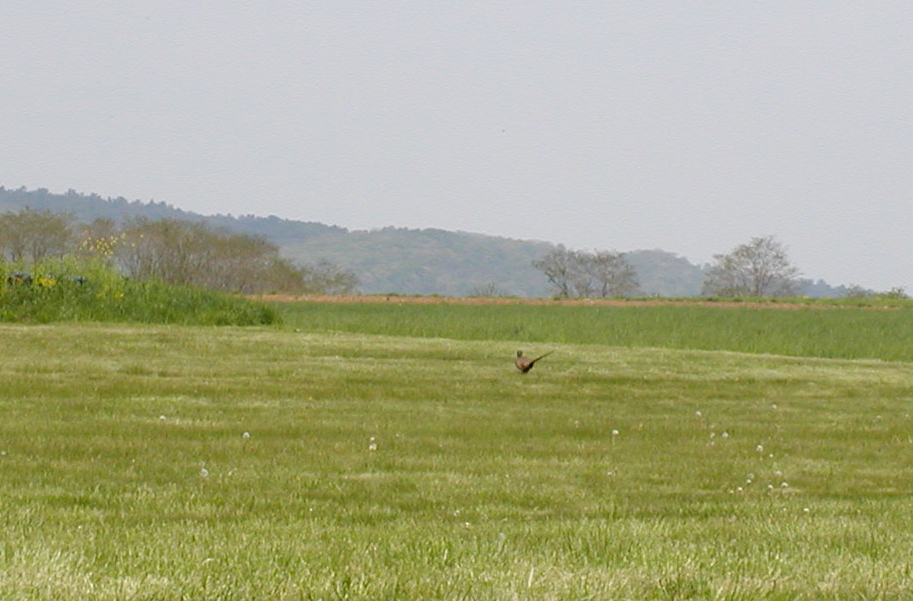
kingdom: Animalia
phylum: Chordata
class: Aves
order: Galliformes
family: Phasianidae
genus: Phasianus
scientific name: Phasianus colchicus
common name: Common pheasant
